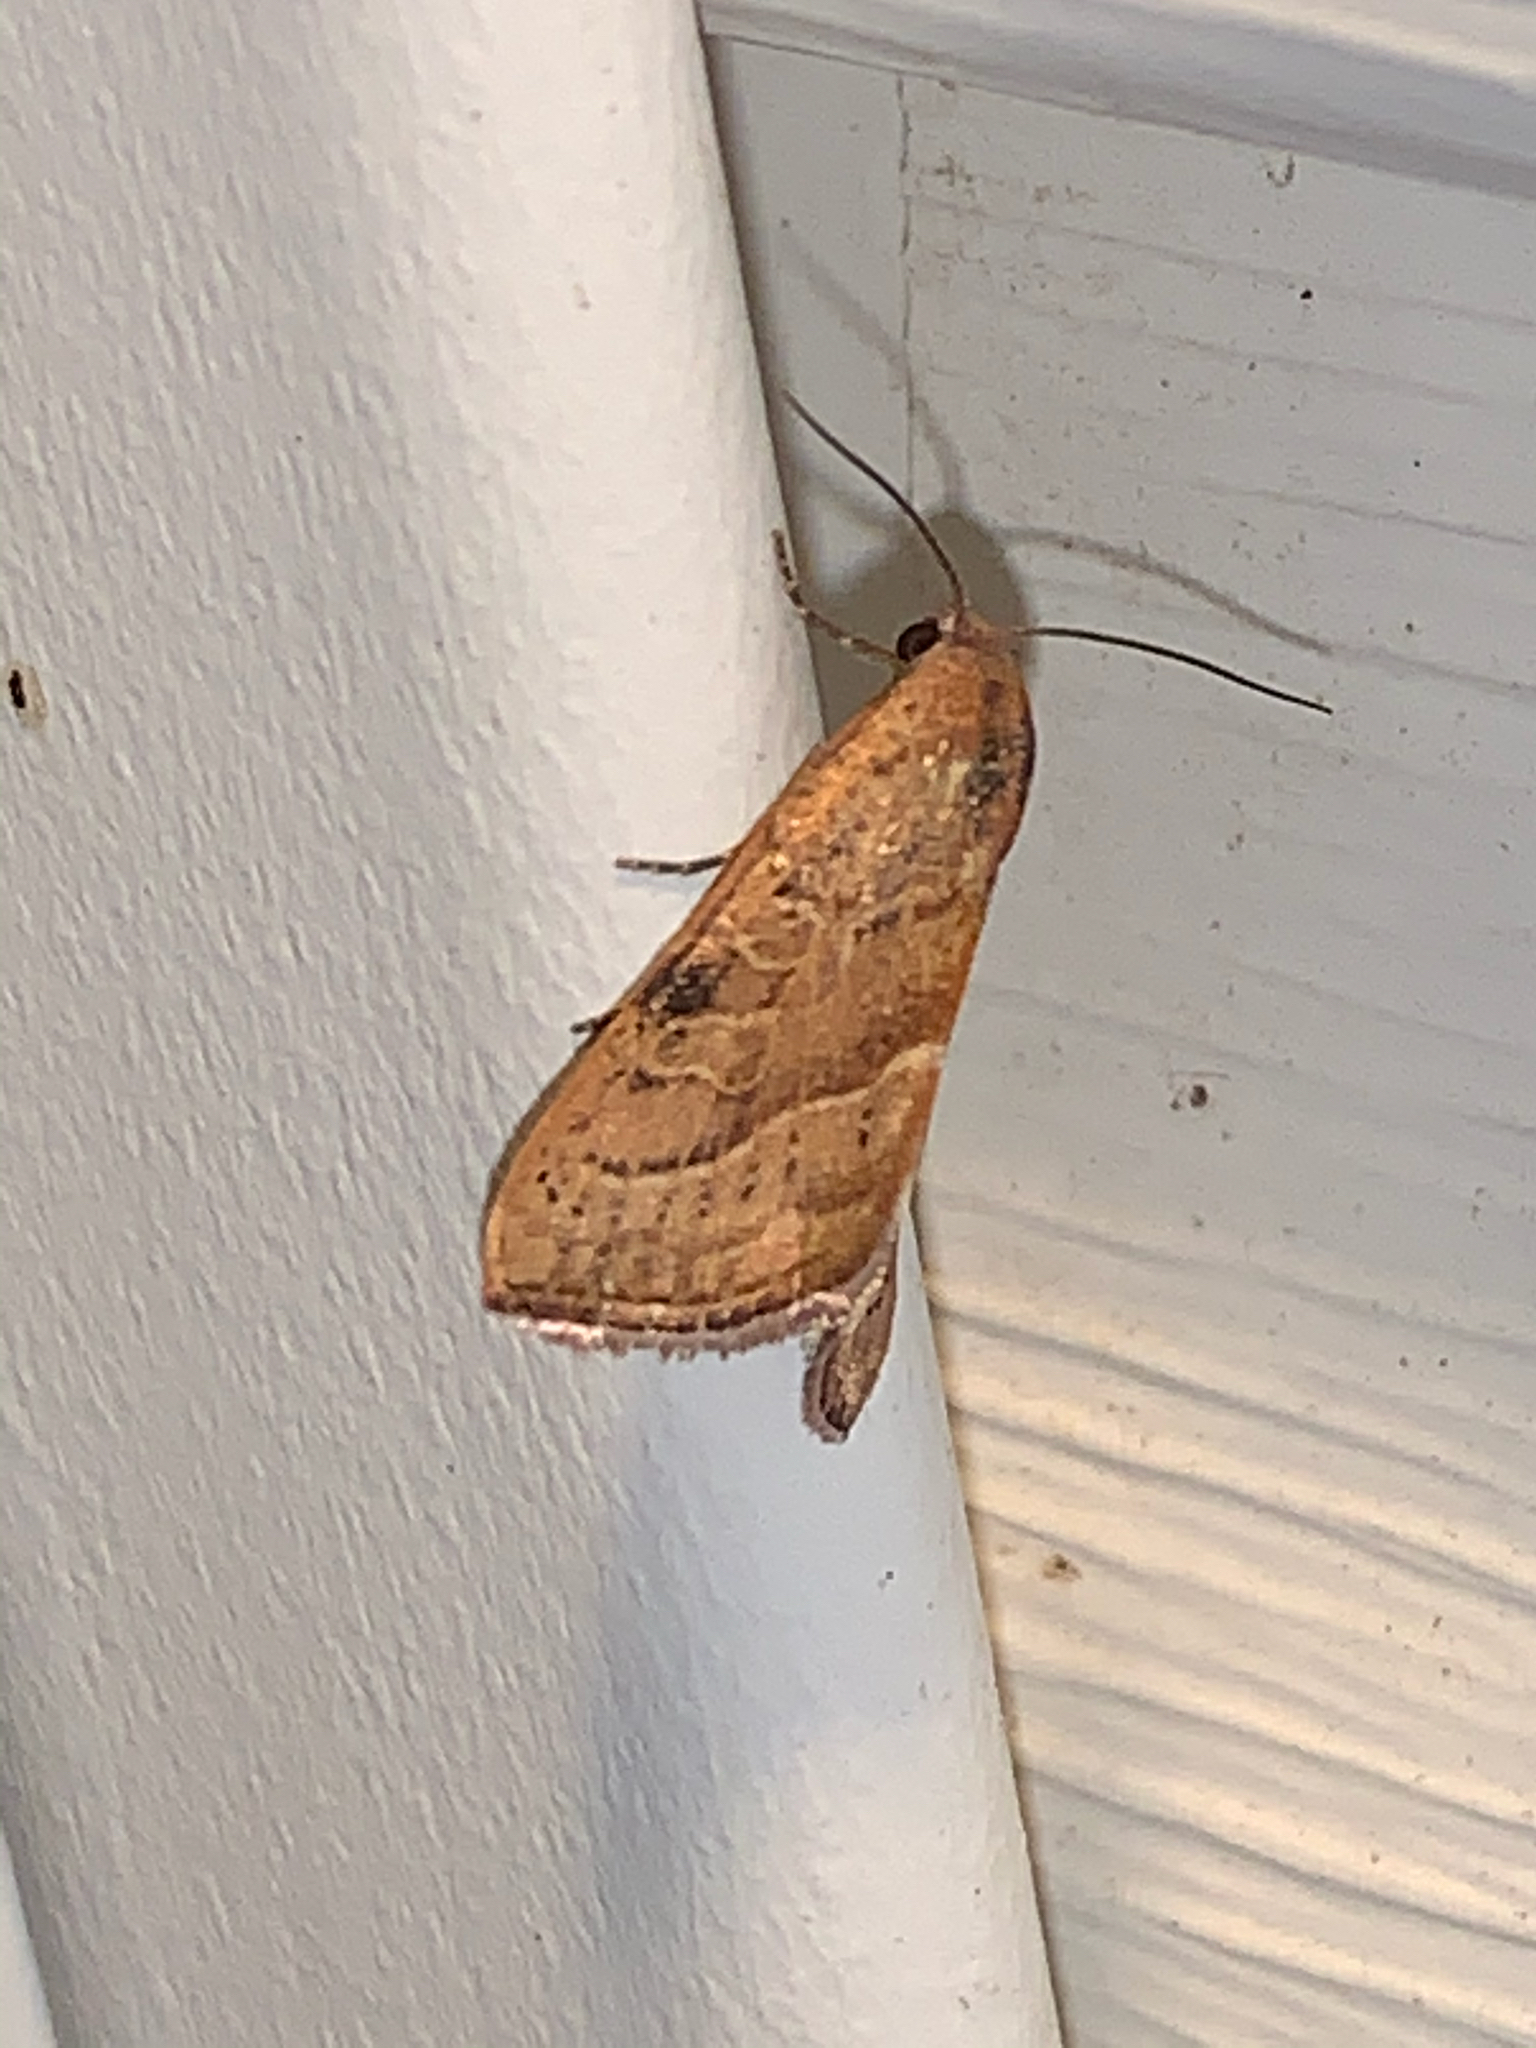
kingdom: Animalia
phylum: Arthropoda
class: Insecta
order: Lepidoptera
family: Noctuidae
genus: Galgula
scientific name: Galgula partita
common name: Wedgeling
